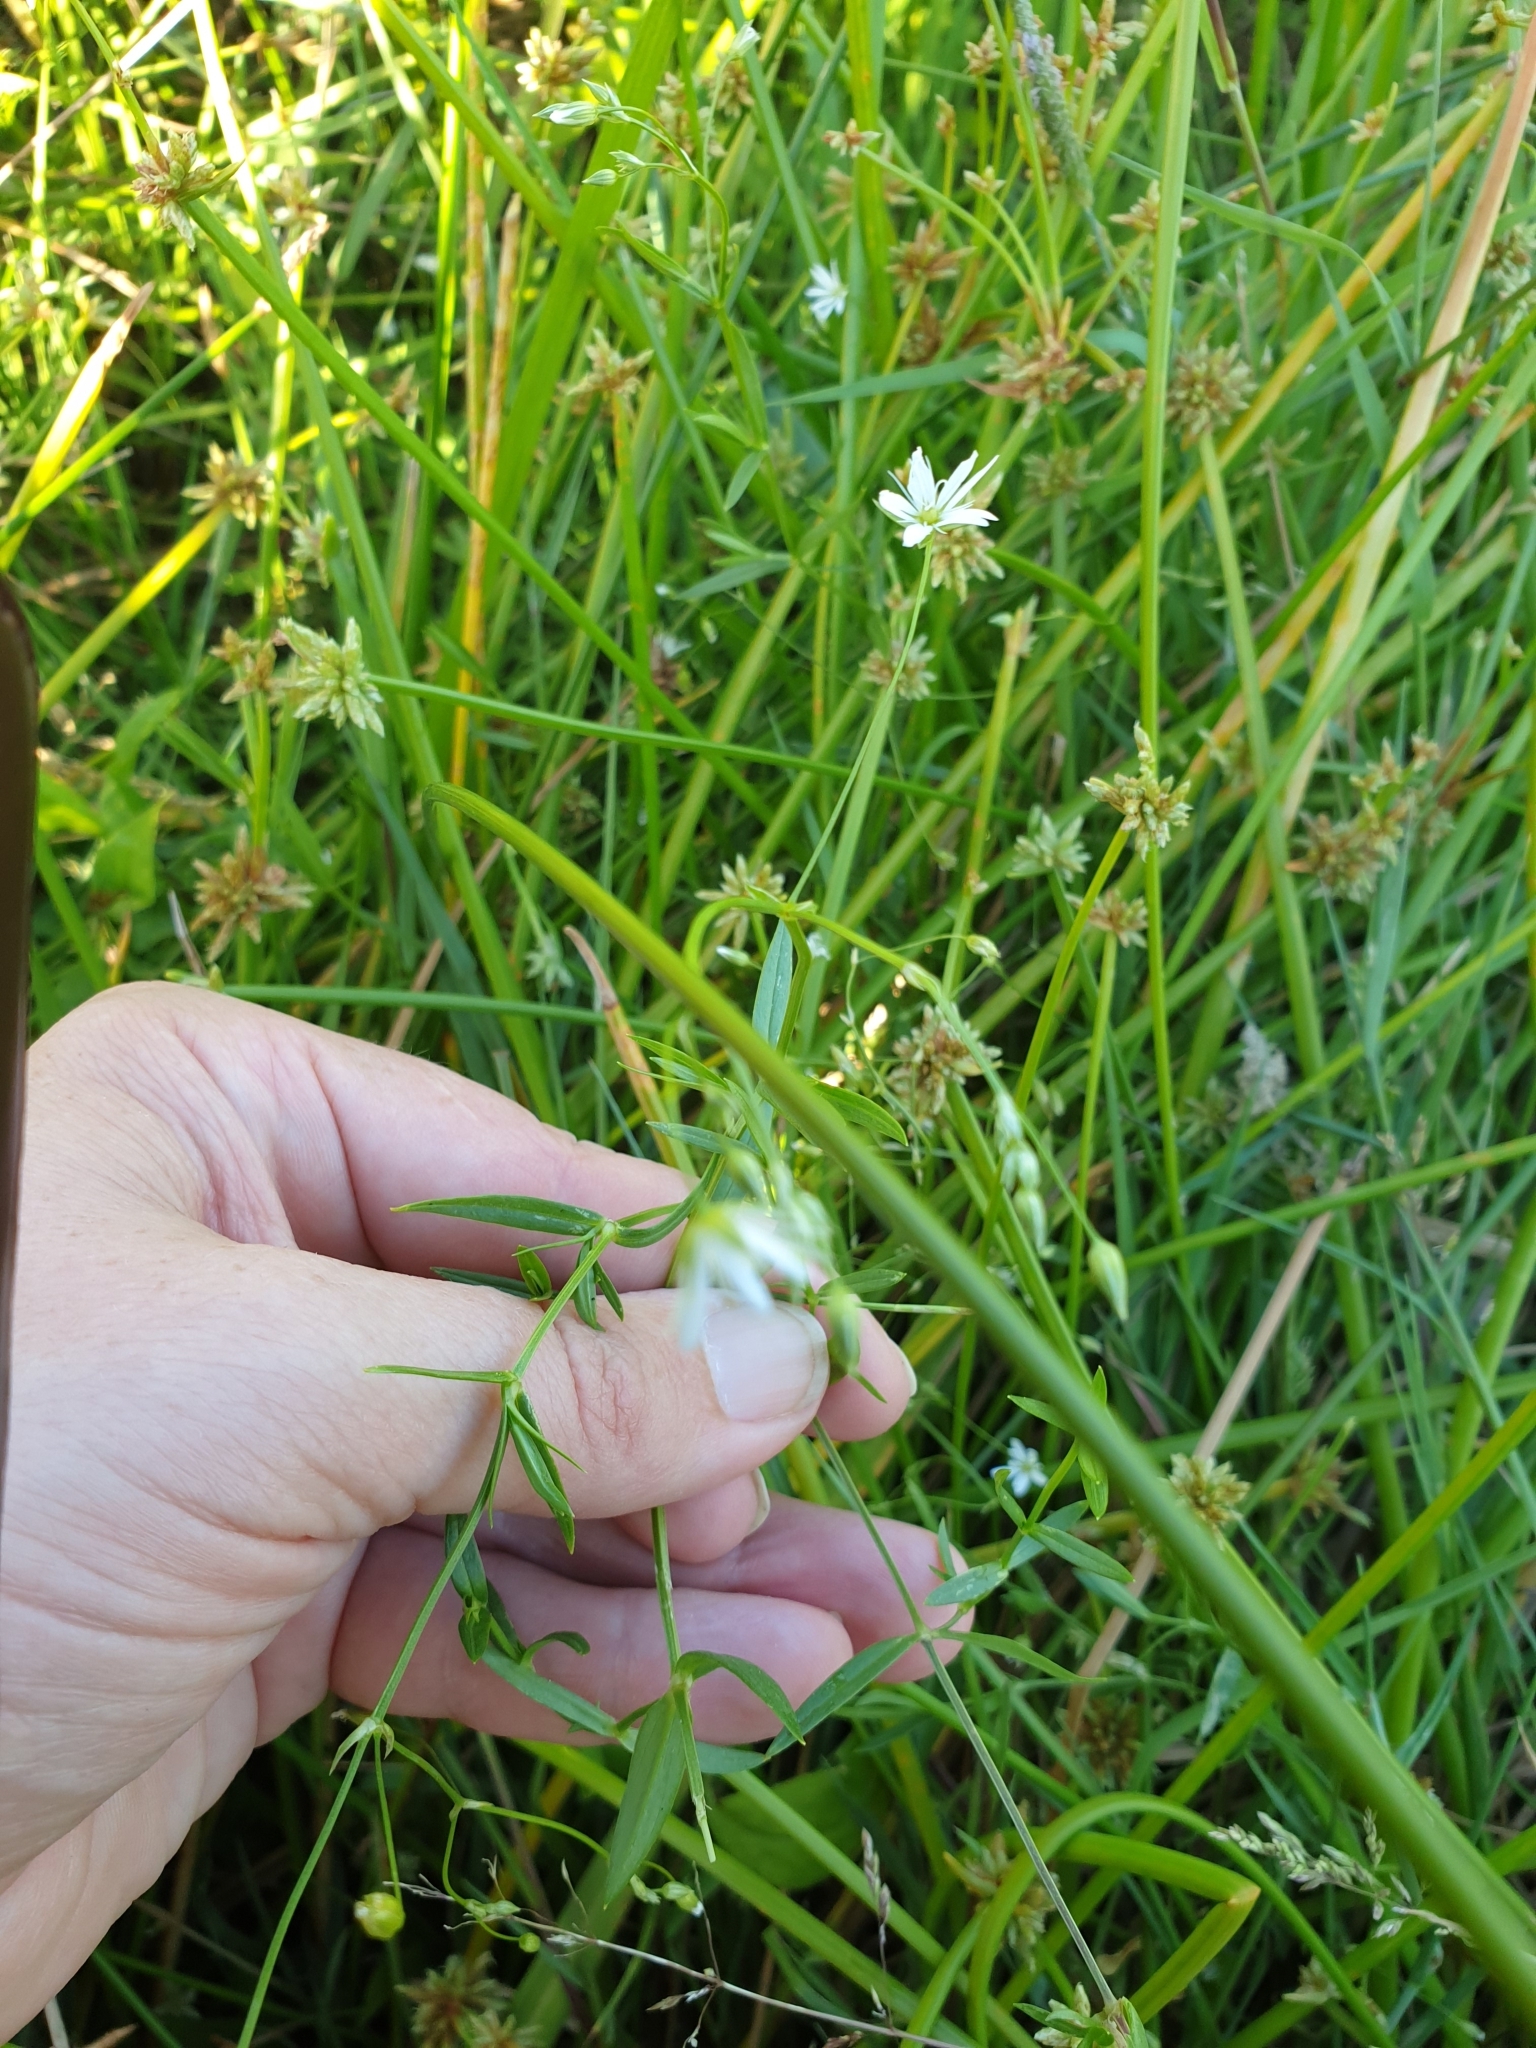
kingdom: Plantae
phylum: Tracheophyta
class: Magnoliopsida
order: Caryophyllales
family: Caryophyllaceae
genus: Stellaria
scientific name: Stellaria graminea
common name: Grass-like starwort
